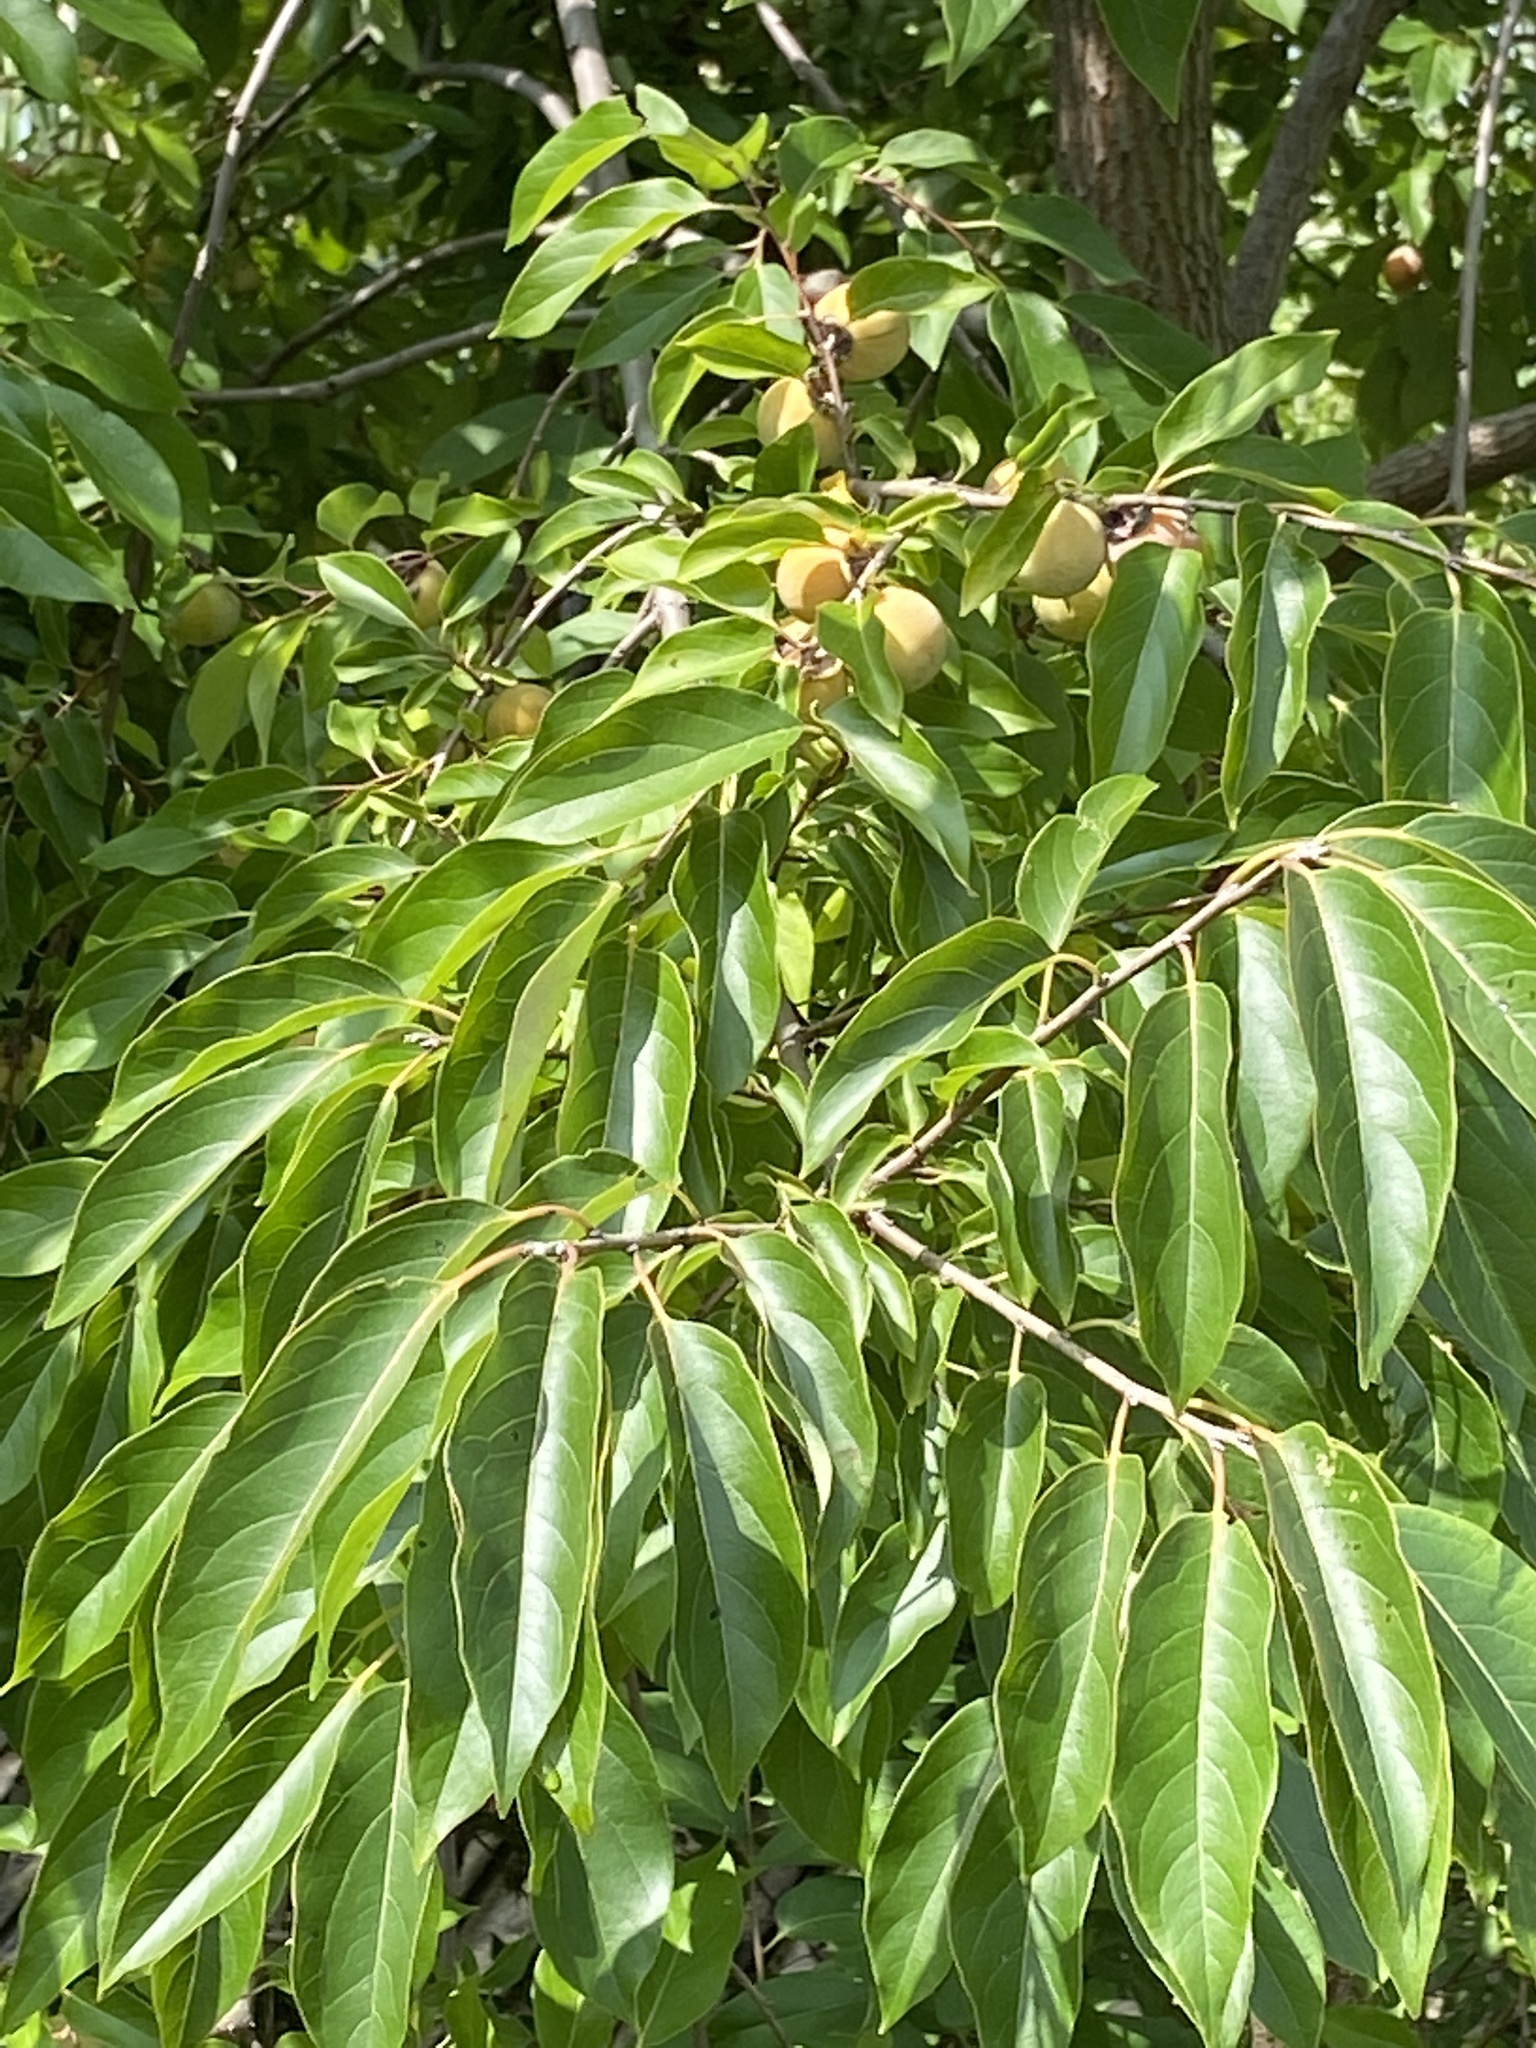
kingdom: Plantae
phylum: Tracheophyta
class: Magnoliopsida
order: Ericales
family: Ebenaceae
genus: Diospyros
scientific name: Diospyros virginiana
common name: Persimmon
